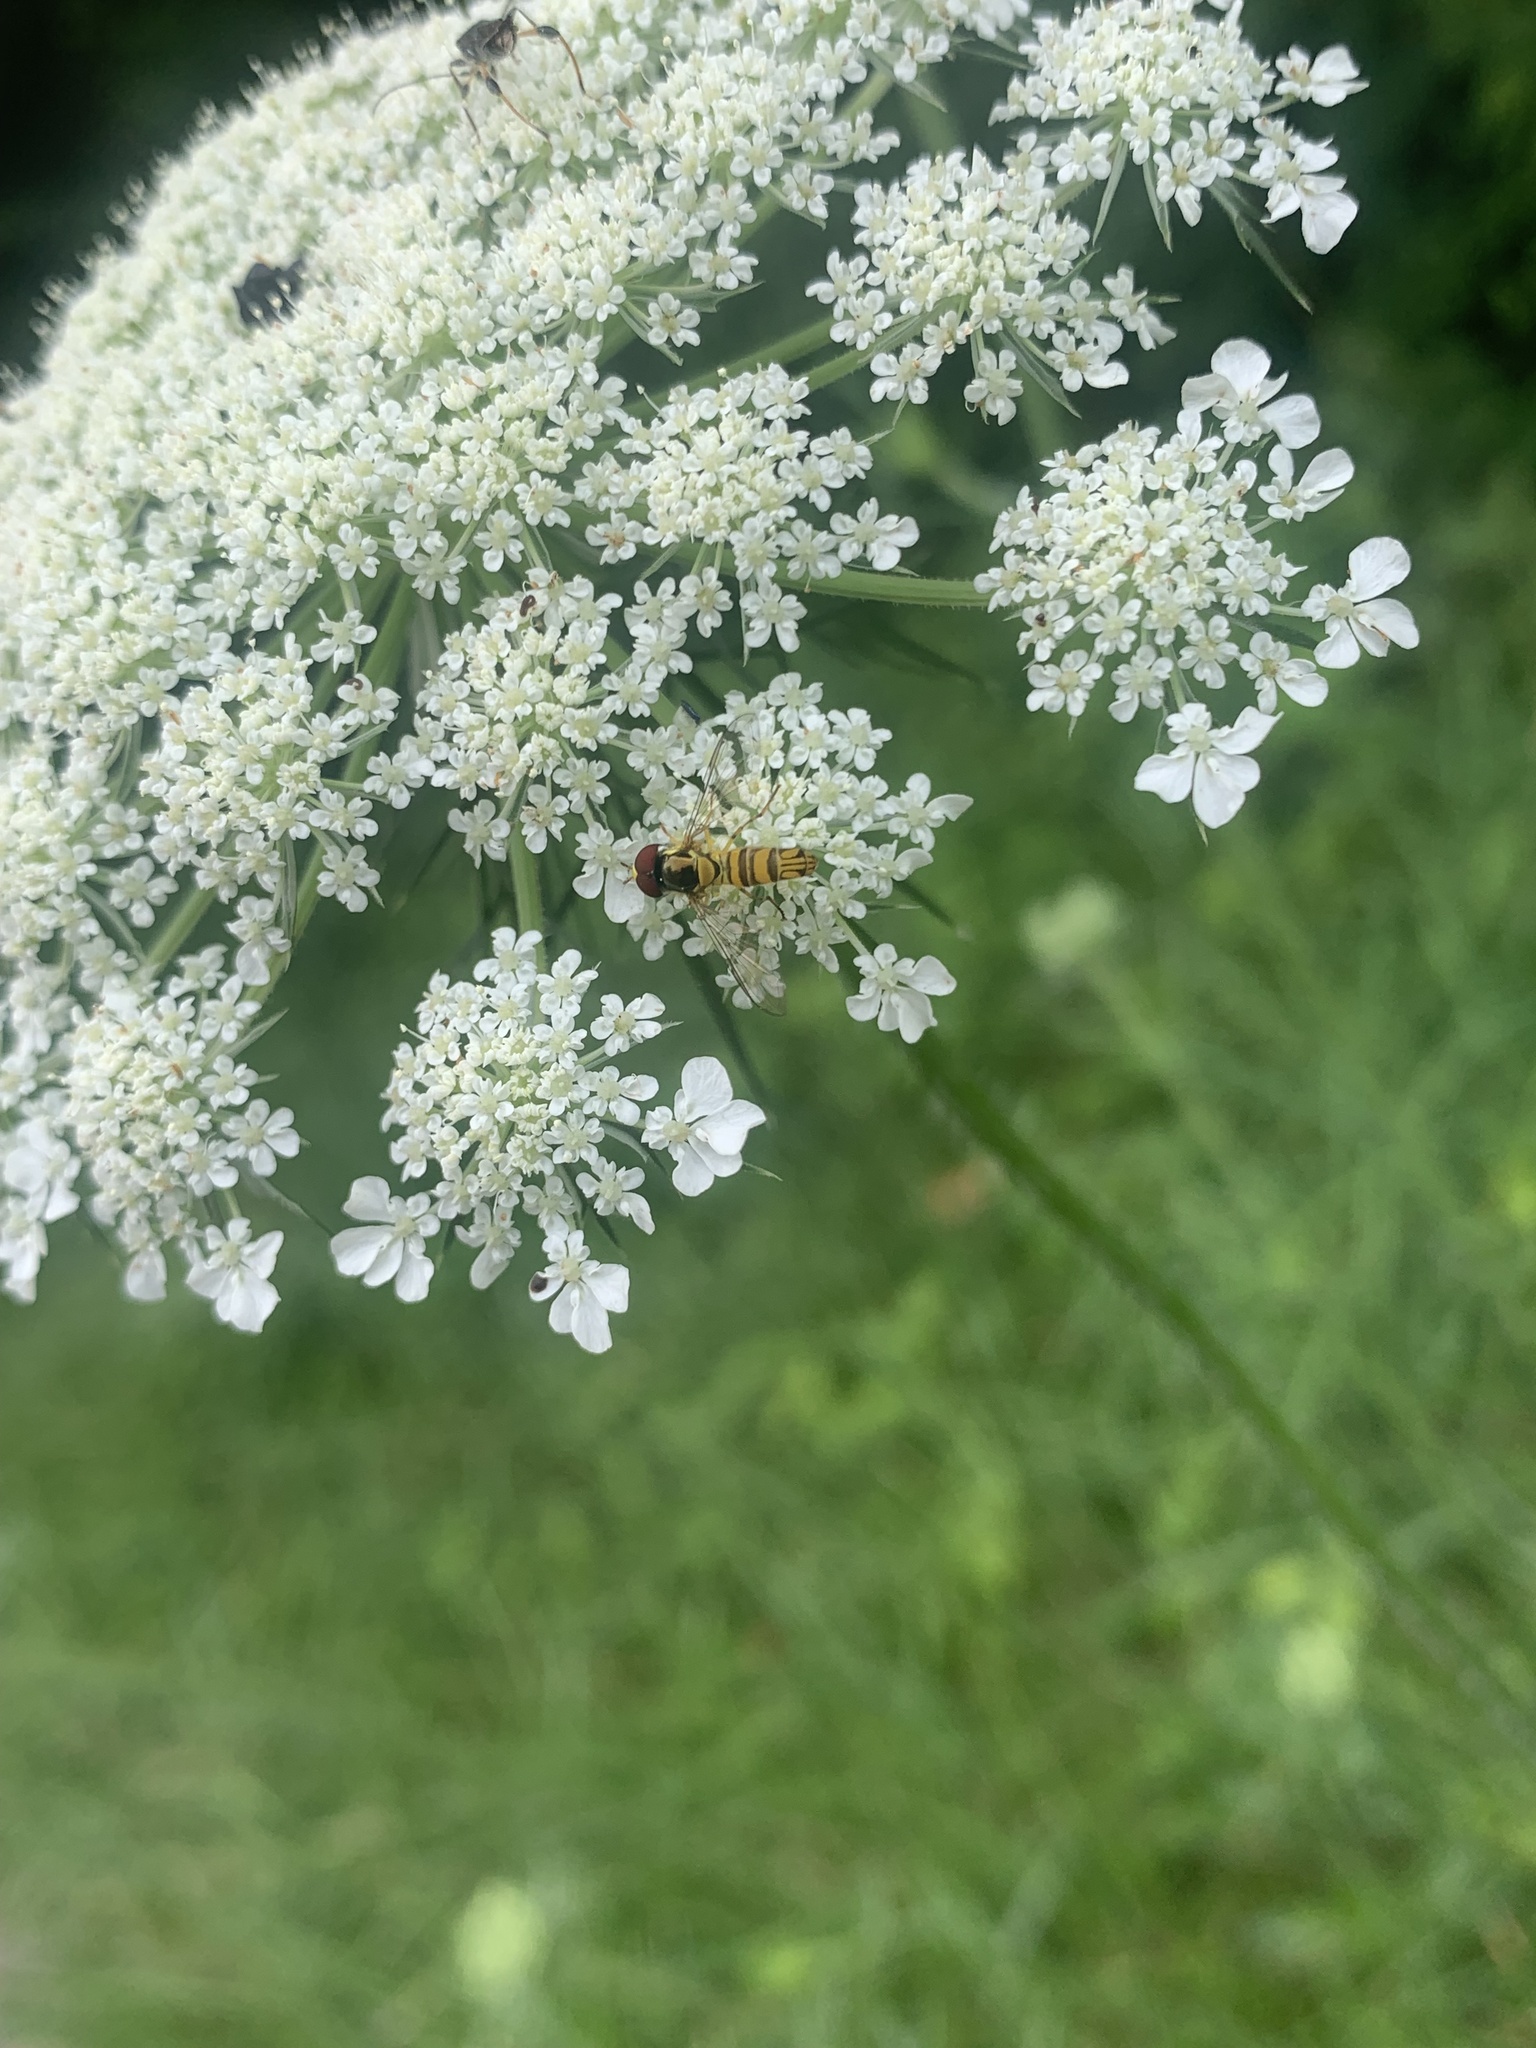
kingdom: Animalia
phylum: Arthropoda
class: Insecta
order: Diptera
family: Syrphidae
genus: Allograpta
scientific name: Allograpta obliqua
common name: Common oblique syrphid
